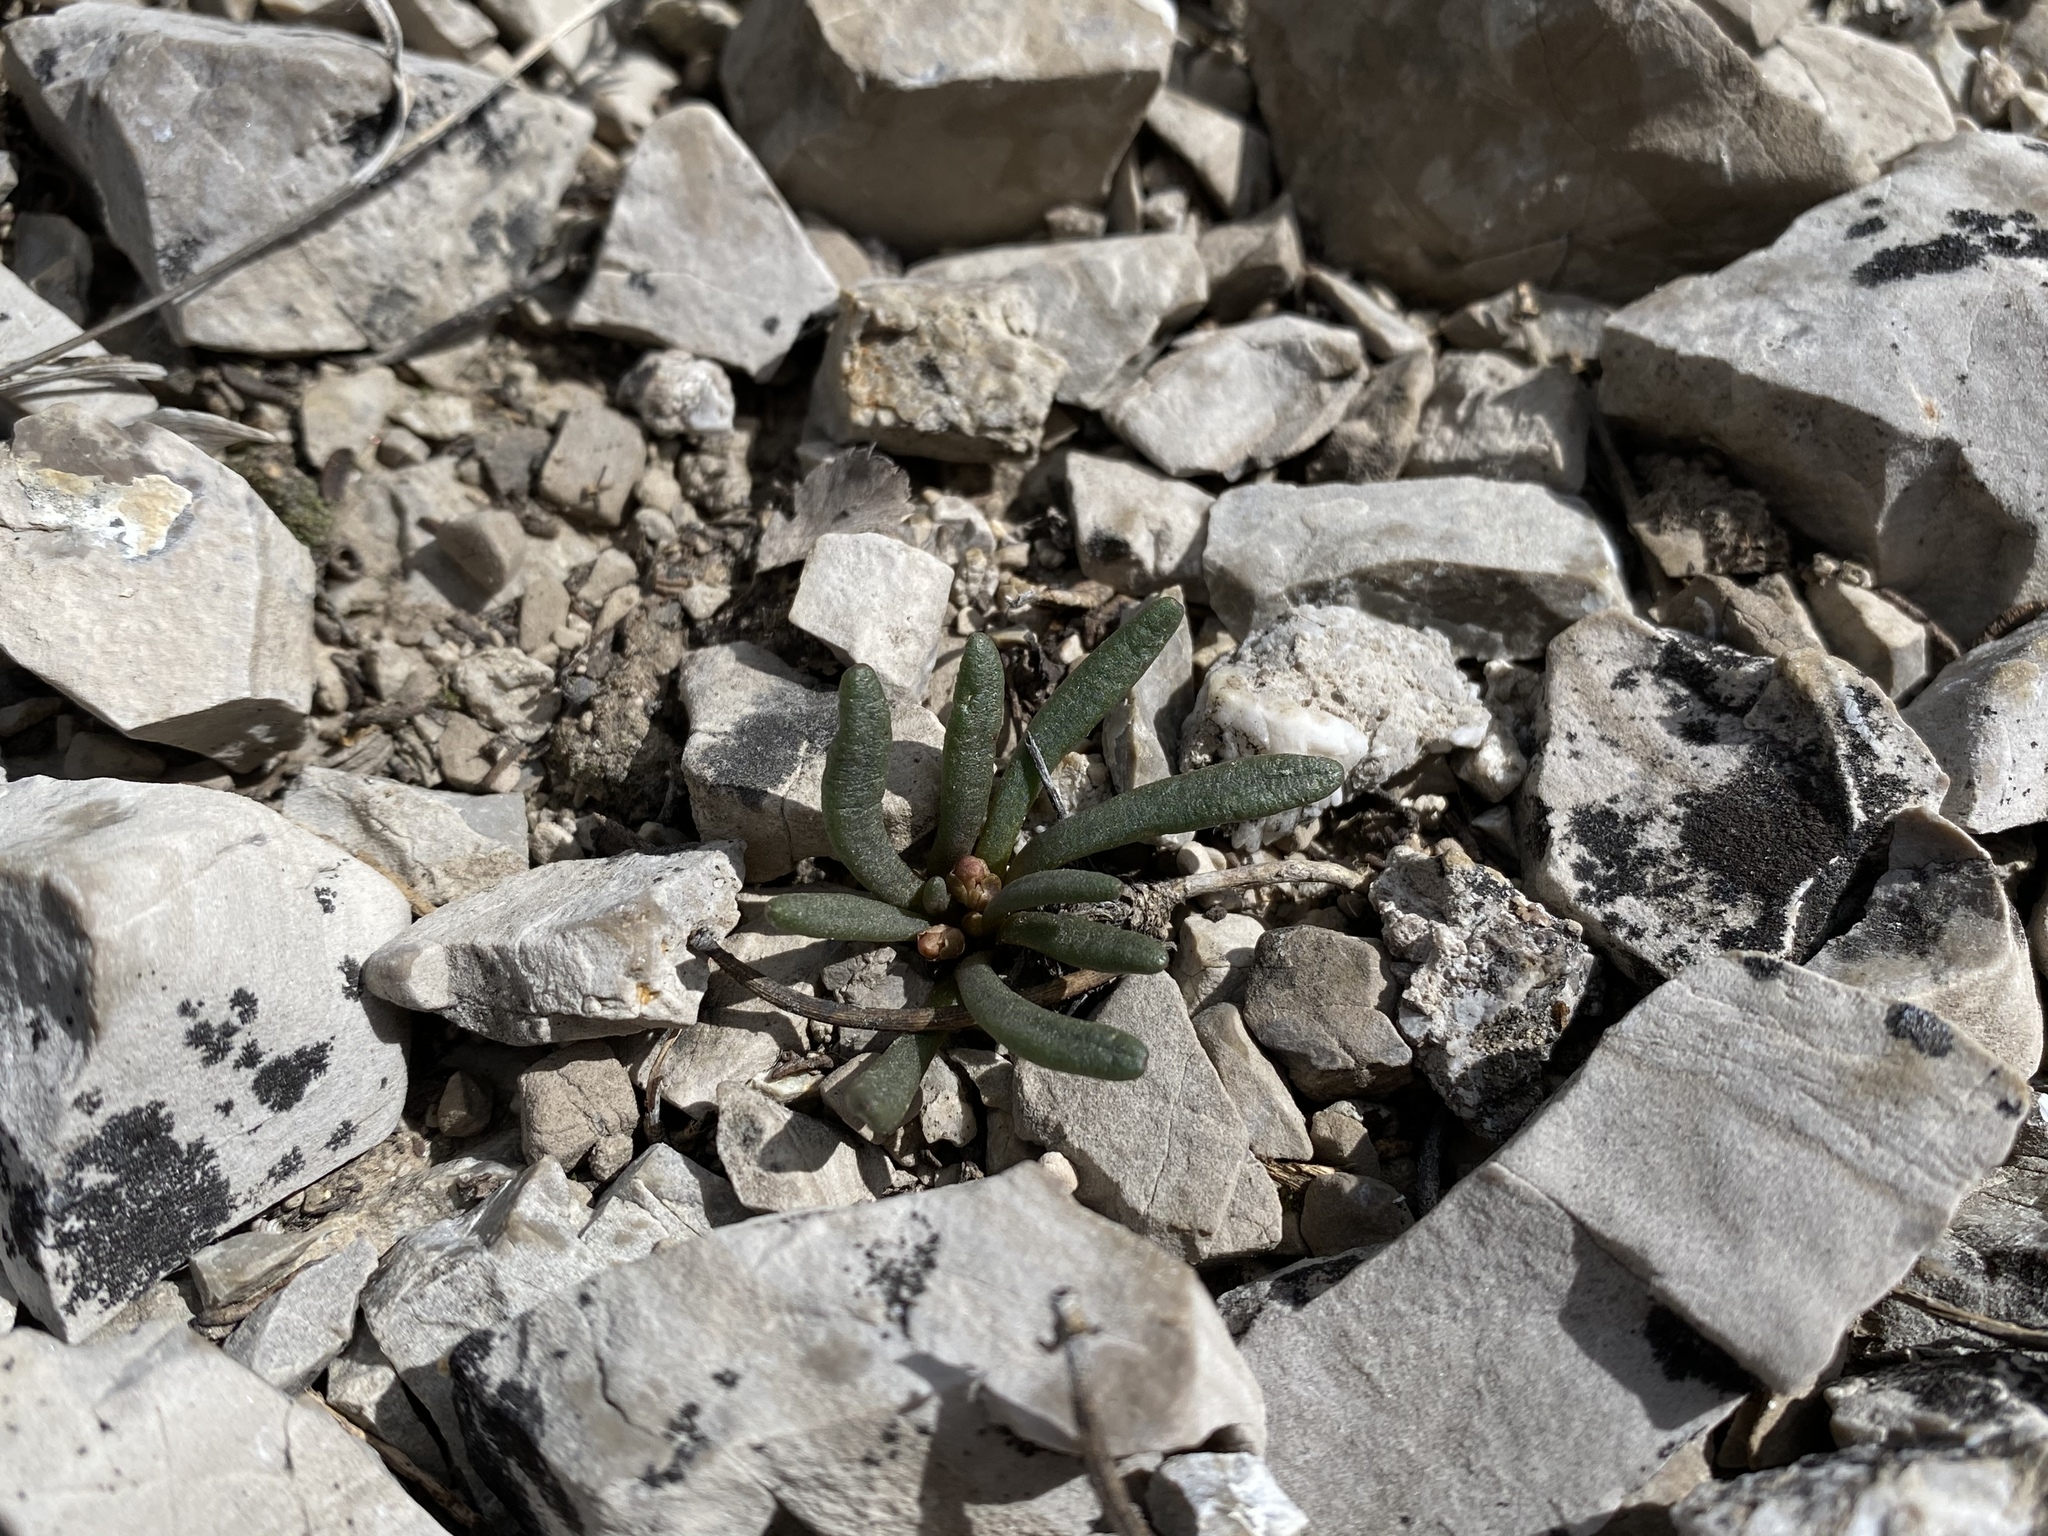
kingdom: Plantae
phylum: Tracheophyta
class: Magnoliopsida
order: Caryophyllales
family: Montiaceae
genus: Lewisia
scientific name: Lewisia maguirei
